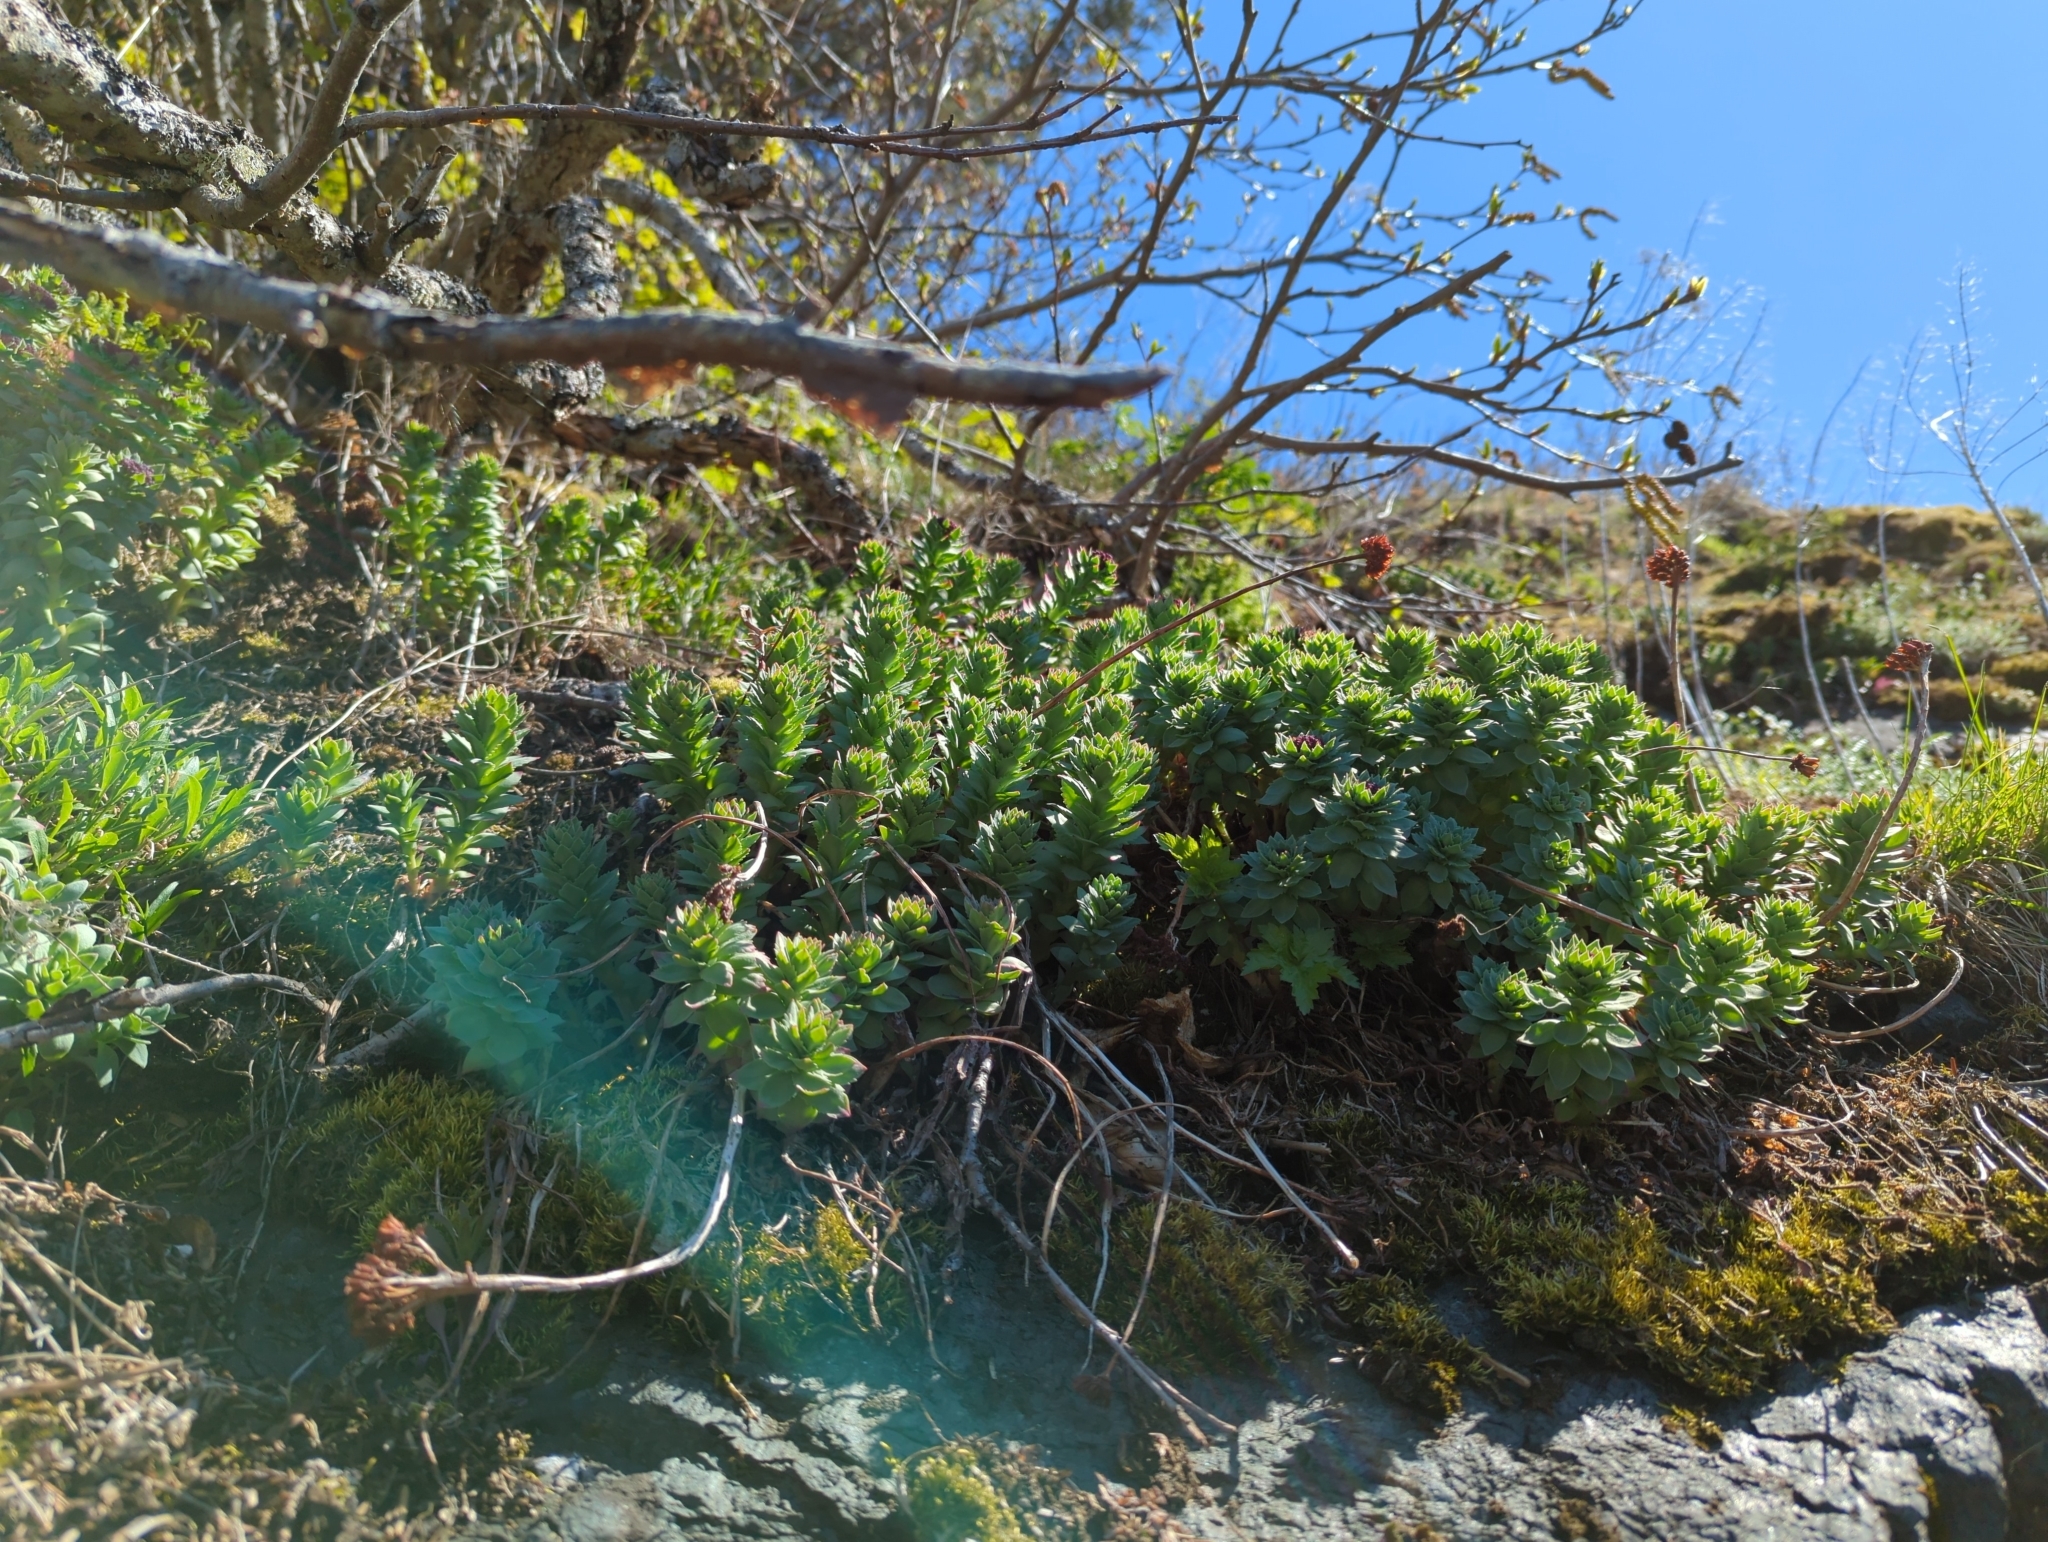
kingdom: Plantae
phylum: Tracheophyta
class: Magnoliopsida
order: Saxifragales
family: Crassulaceae
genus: Rhodiola
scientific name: Rhodiola integrifolia
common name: Western roseroot
